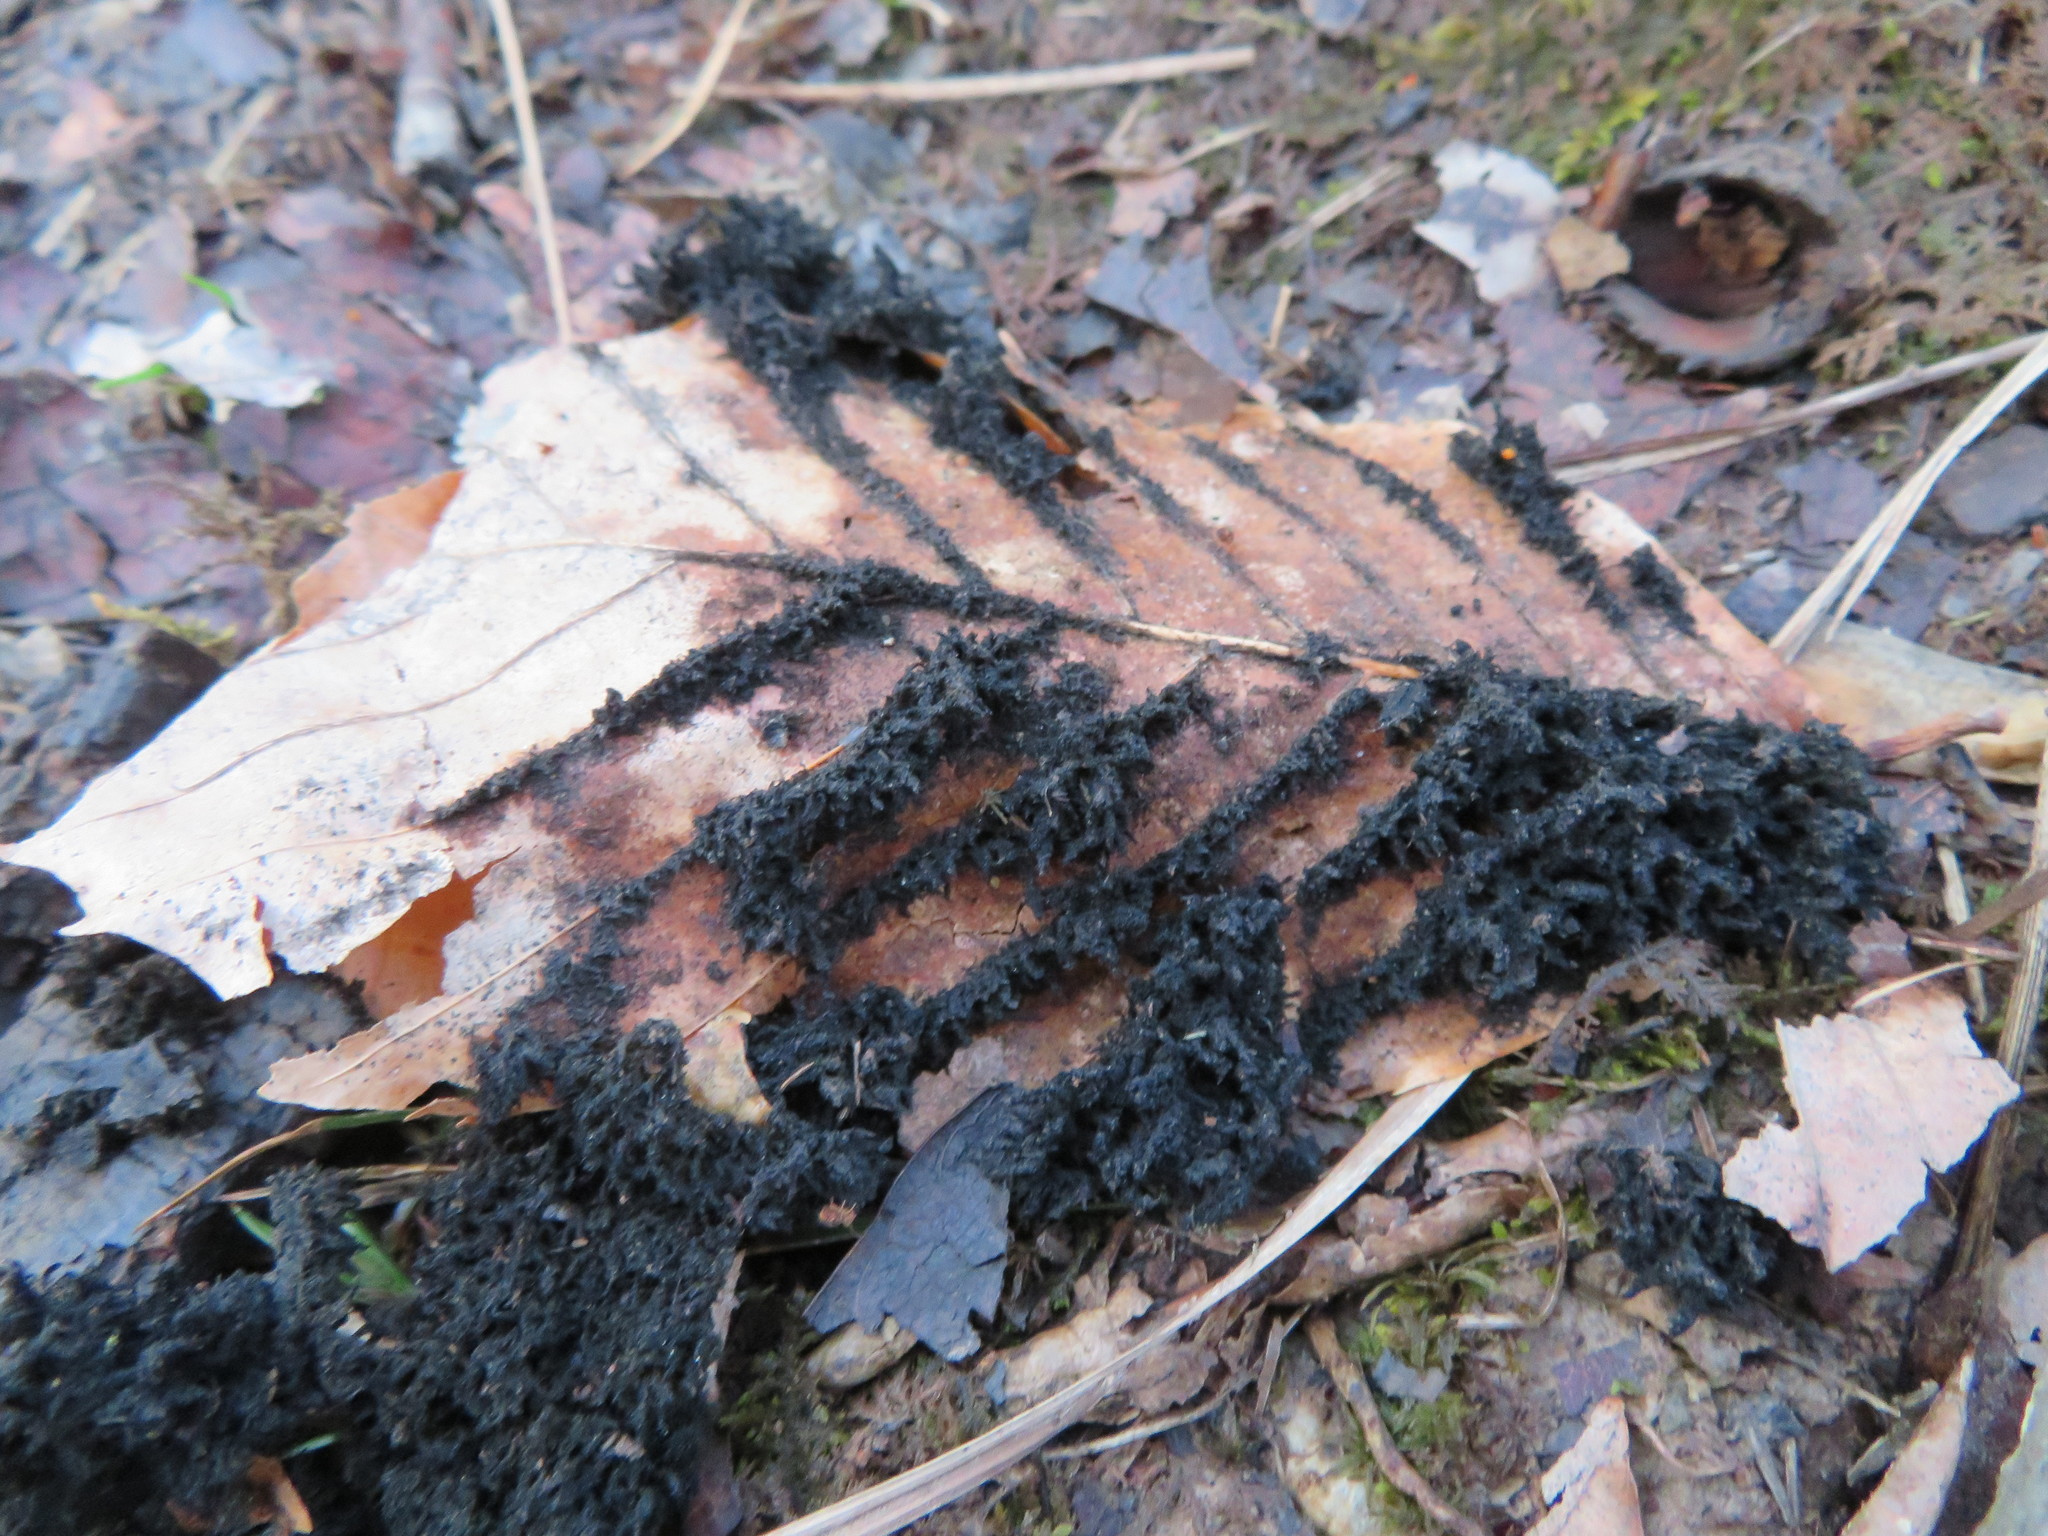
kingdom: Fungi
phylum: Ascomycota
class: Dothideomycetes
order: Capnodiales
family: Capnodiaceae
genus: Scorias
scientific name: Scorias spongiosa
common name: Black sooty mold
